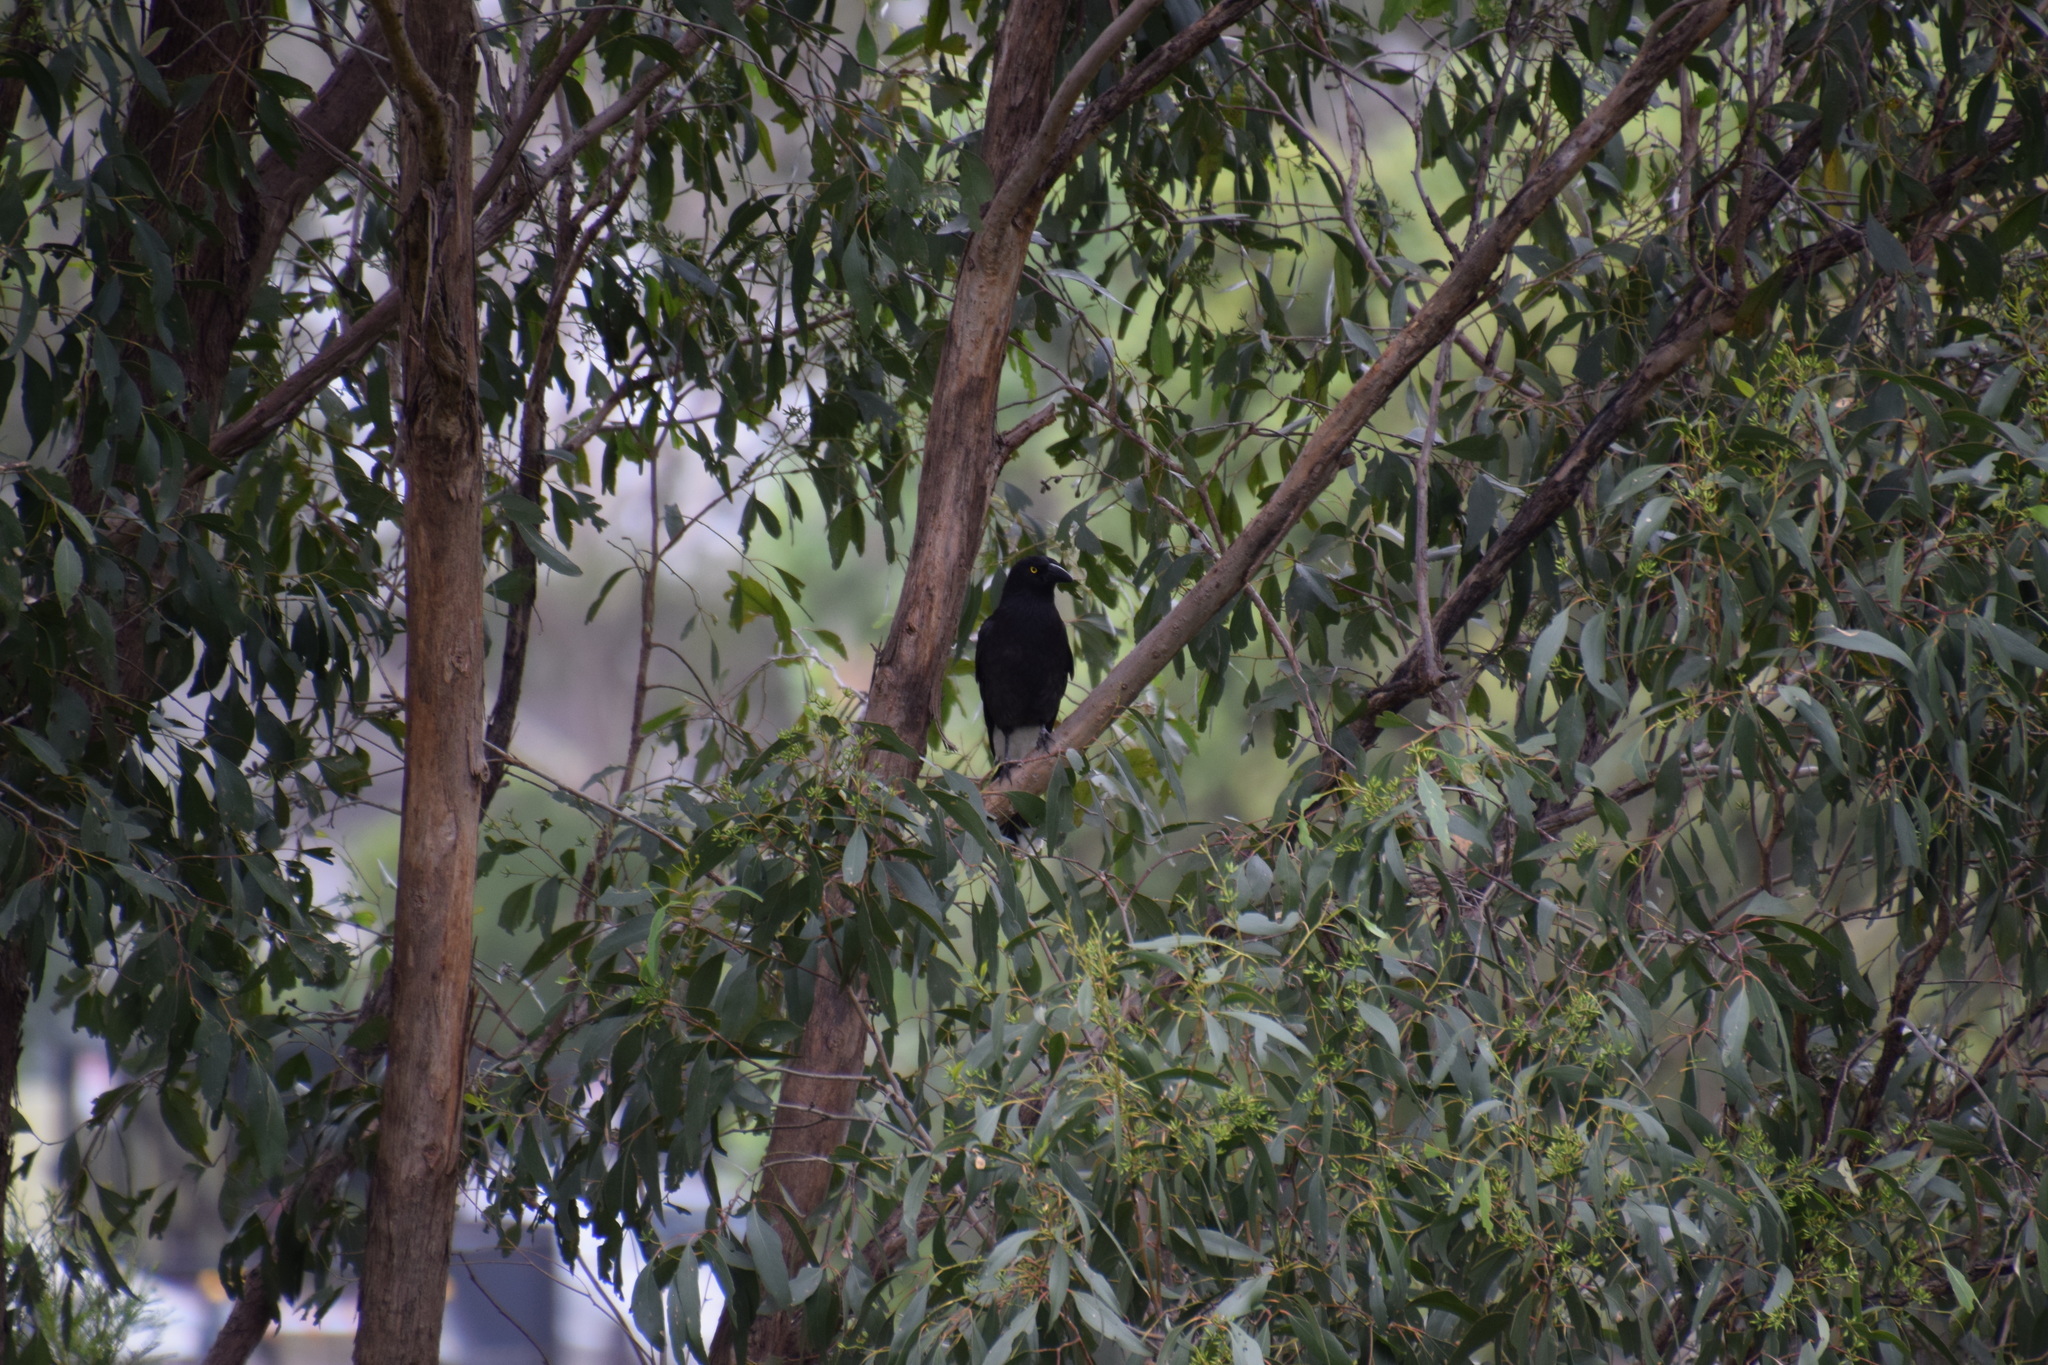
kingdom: Animalia
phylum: Chordata
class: Aves
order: Passeriformes
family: Cracticidae
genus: Strepera
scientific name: Strepera graculina
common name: Pied currawong
